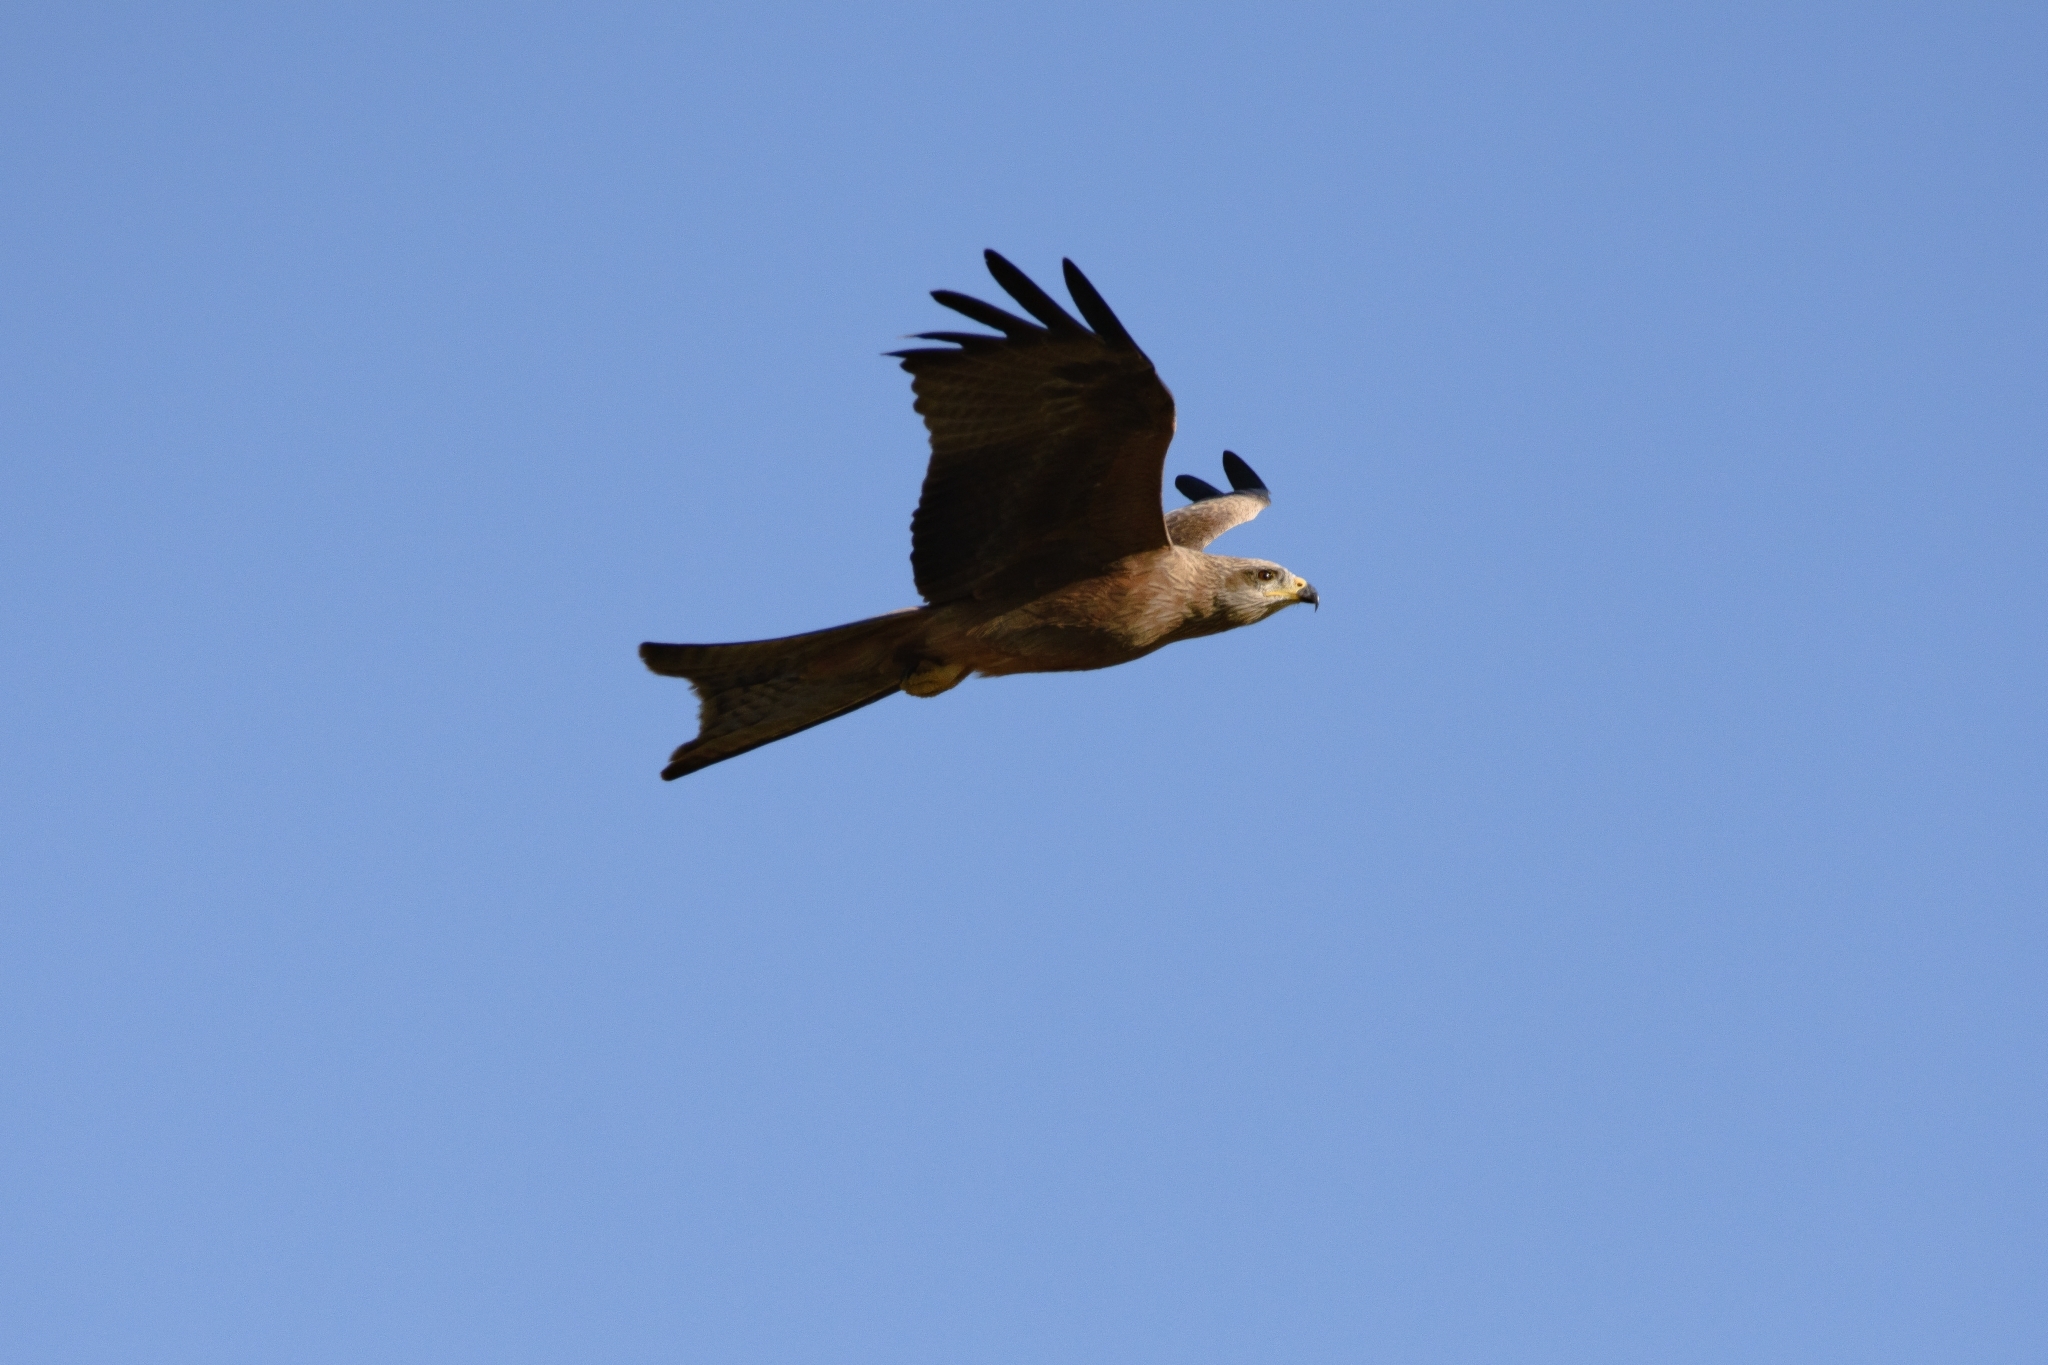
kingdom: Animalia
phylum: Chordata
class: Aves
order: Accipitriformes
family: Accipitridae
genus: Milvus
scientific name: Milvus migrans
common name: Black kite
